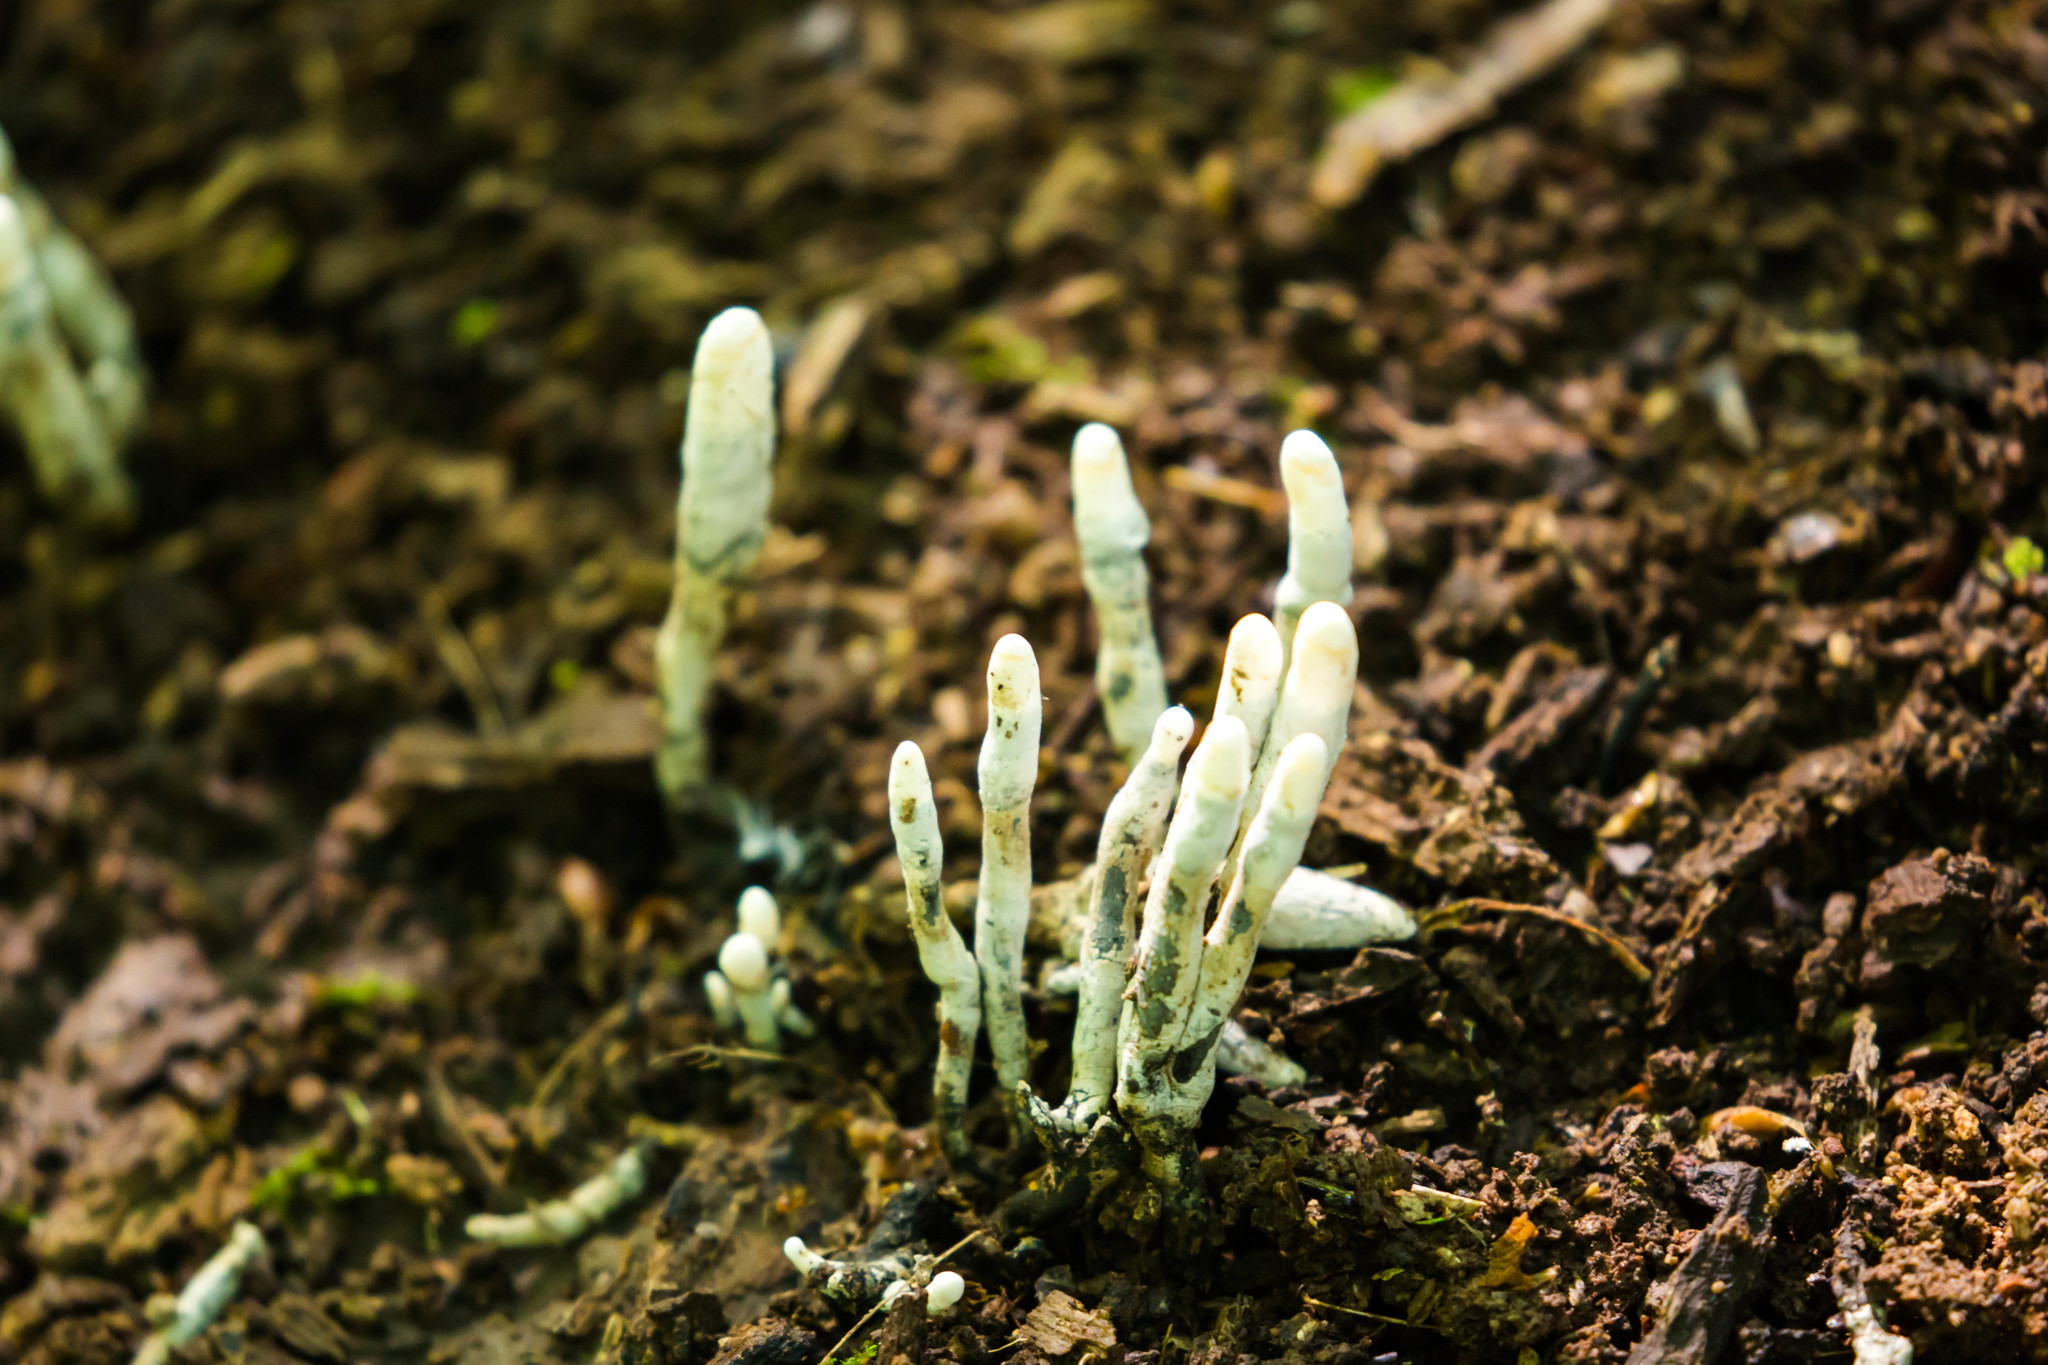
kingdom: Fungi
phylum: Ascomycota
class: Sordariomycetes
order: Xylariales
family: Xylariaceae
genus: Xylaria
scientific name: Xylaria polymorpha
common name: Dead man's fingers
